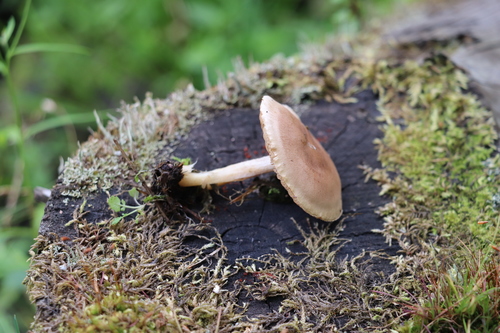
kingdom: Fungi
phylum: Basidiomycota
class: Agaricomycetes
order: Agaricales
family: Hymenogastraceae
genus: Hebeloma
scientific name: Hebeloma
